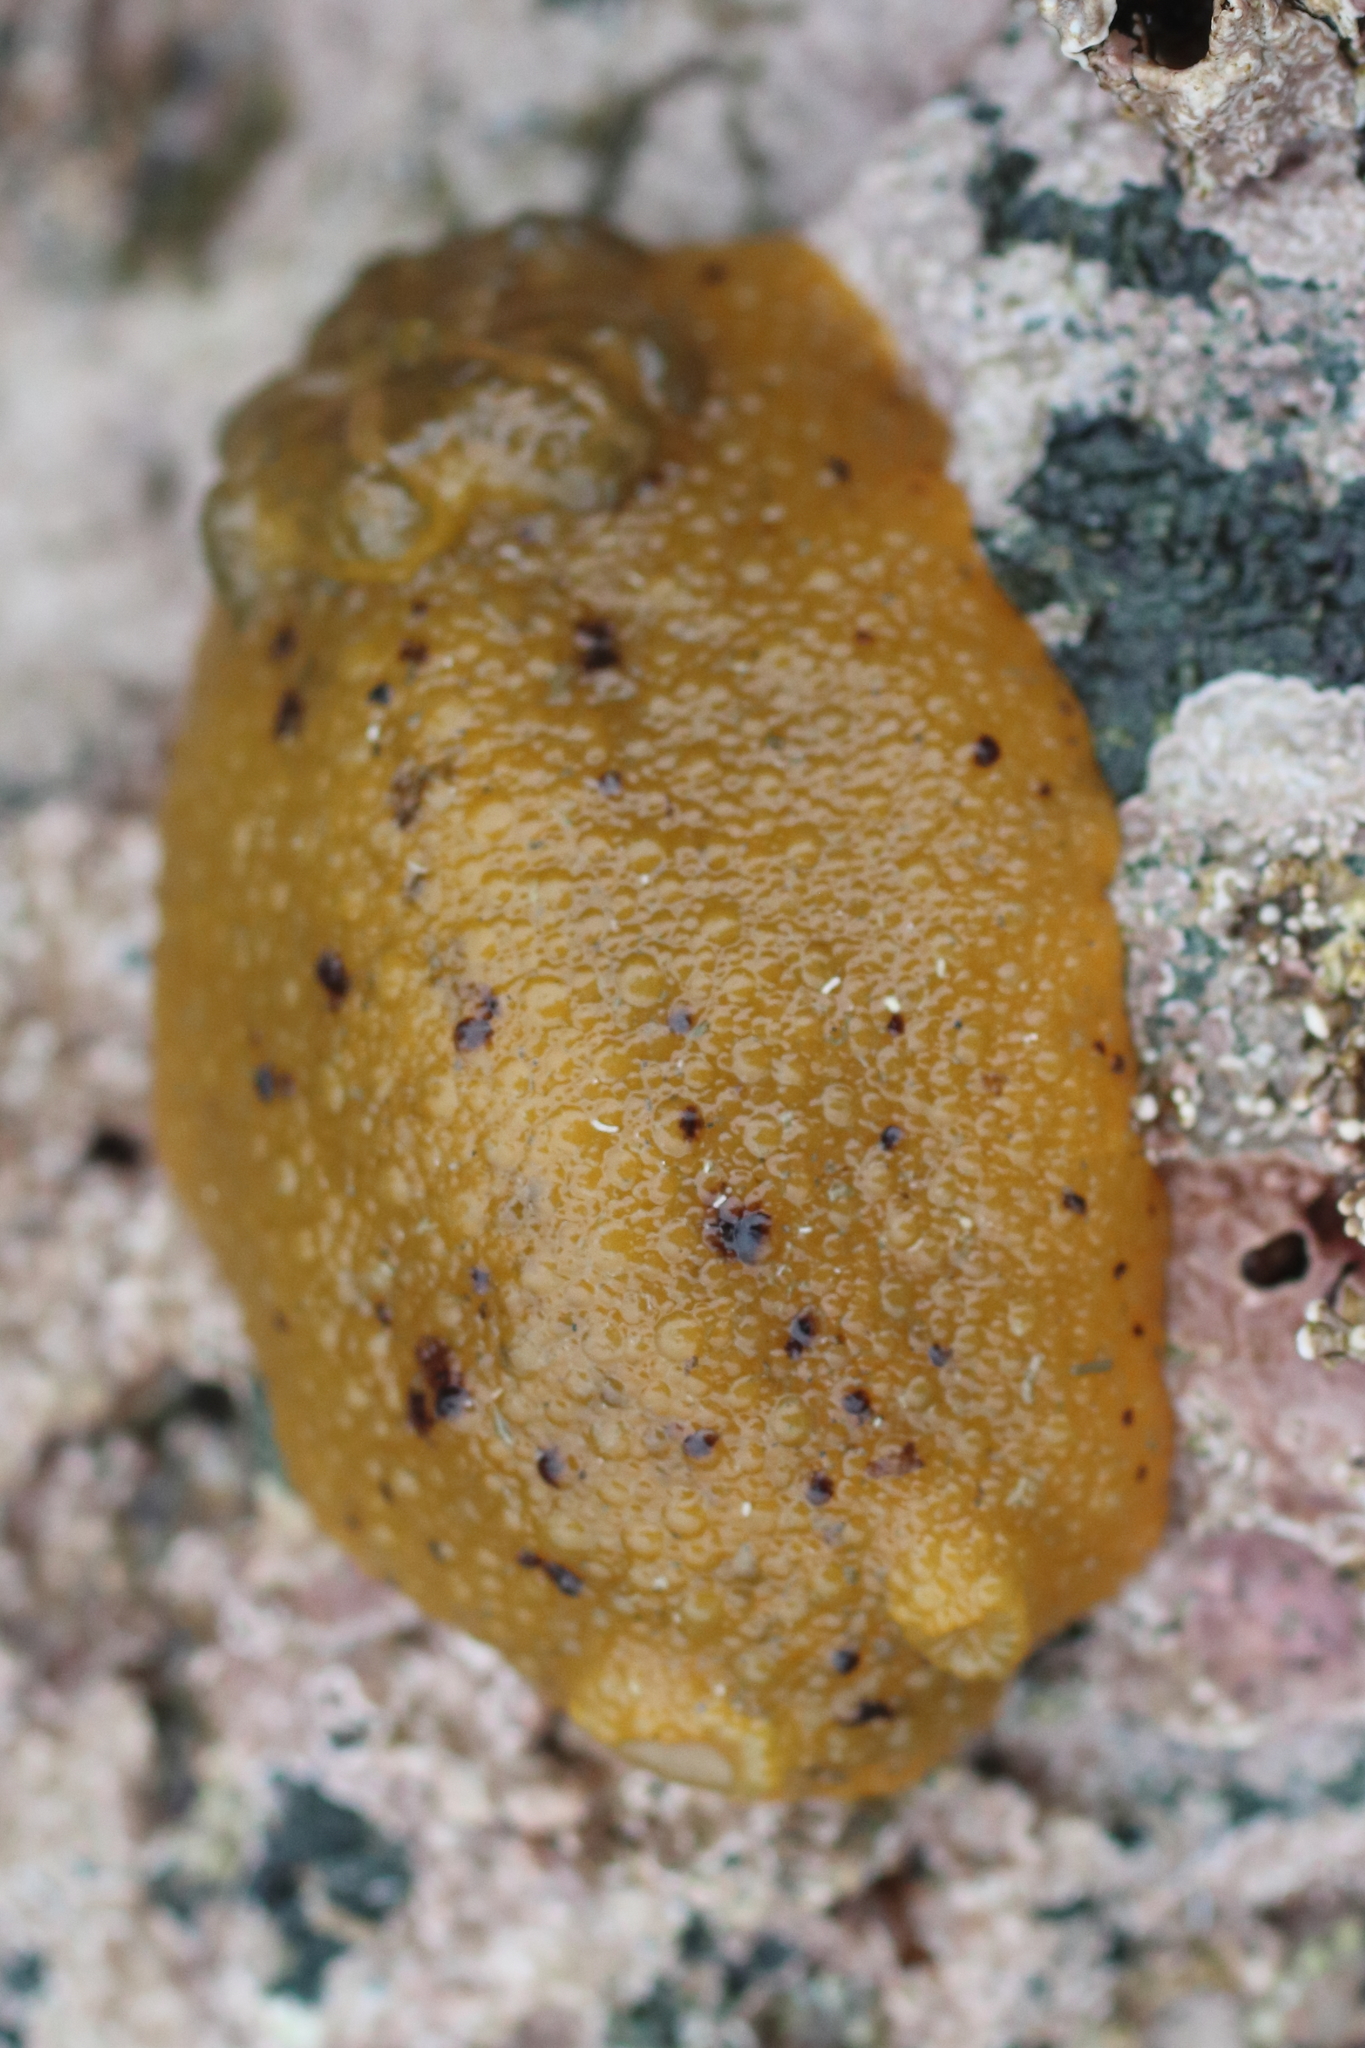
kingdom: Animalia
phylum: Mollusca
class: Gastropoda
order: Nudibranchia
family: Dorididae
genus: Doris
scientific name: Doris montereyensis
